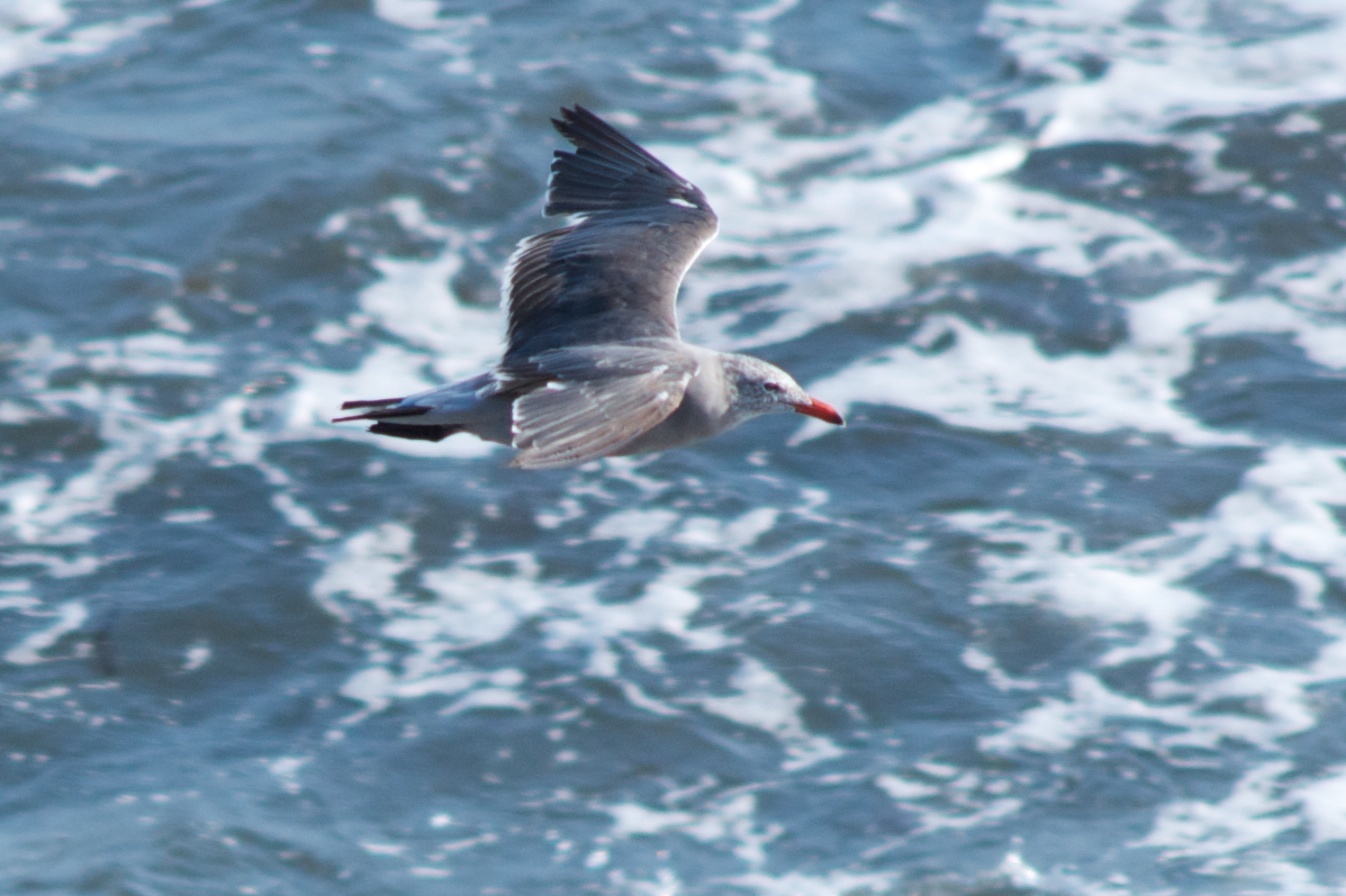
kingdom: Animalia
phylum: Chordata
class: Aves
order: Charadriiformes
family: Laridae
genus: Larus
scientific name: Larus heermanni
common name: Heermann's gull
